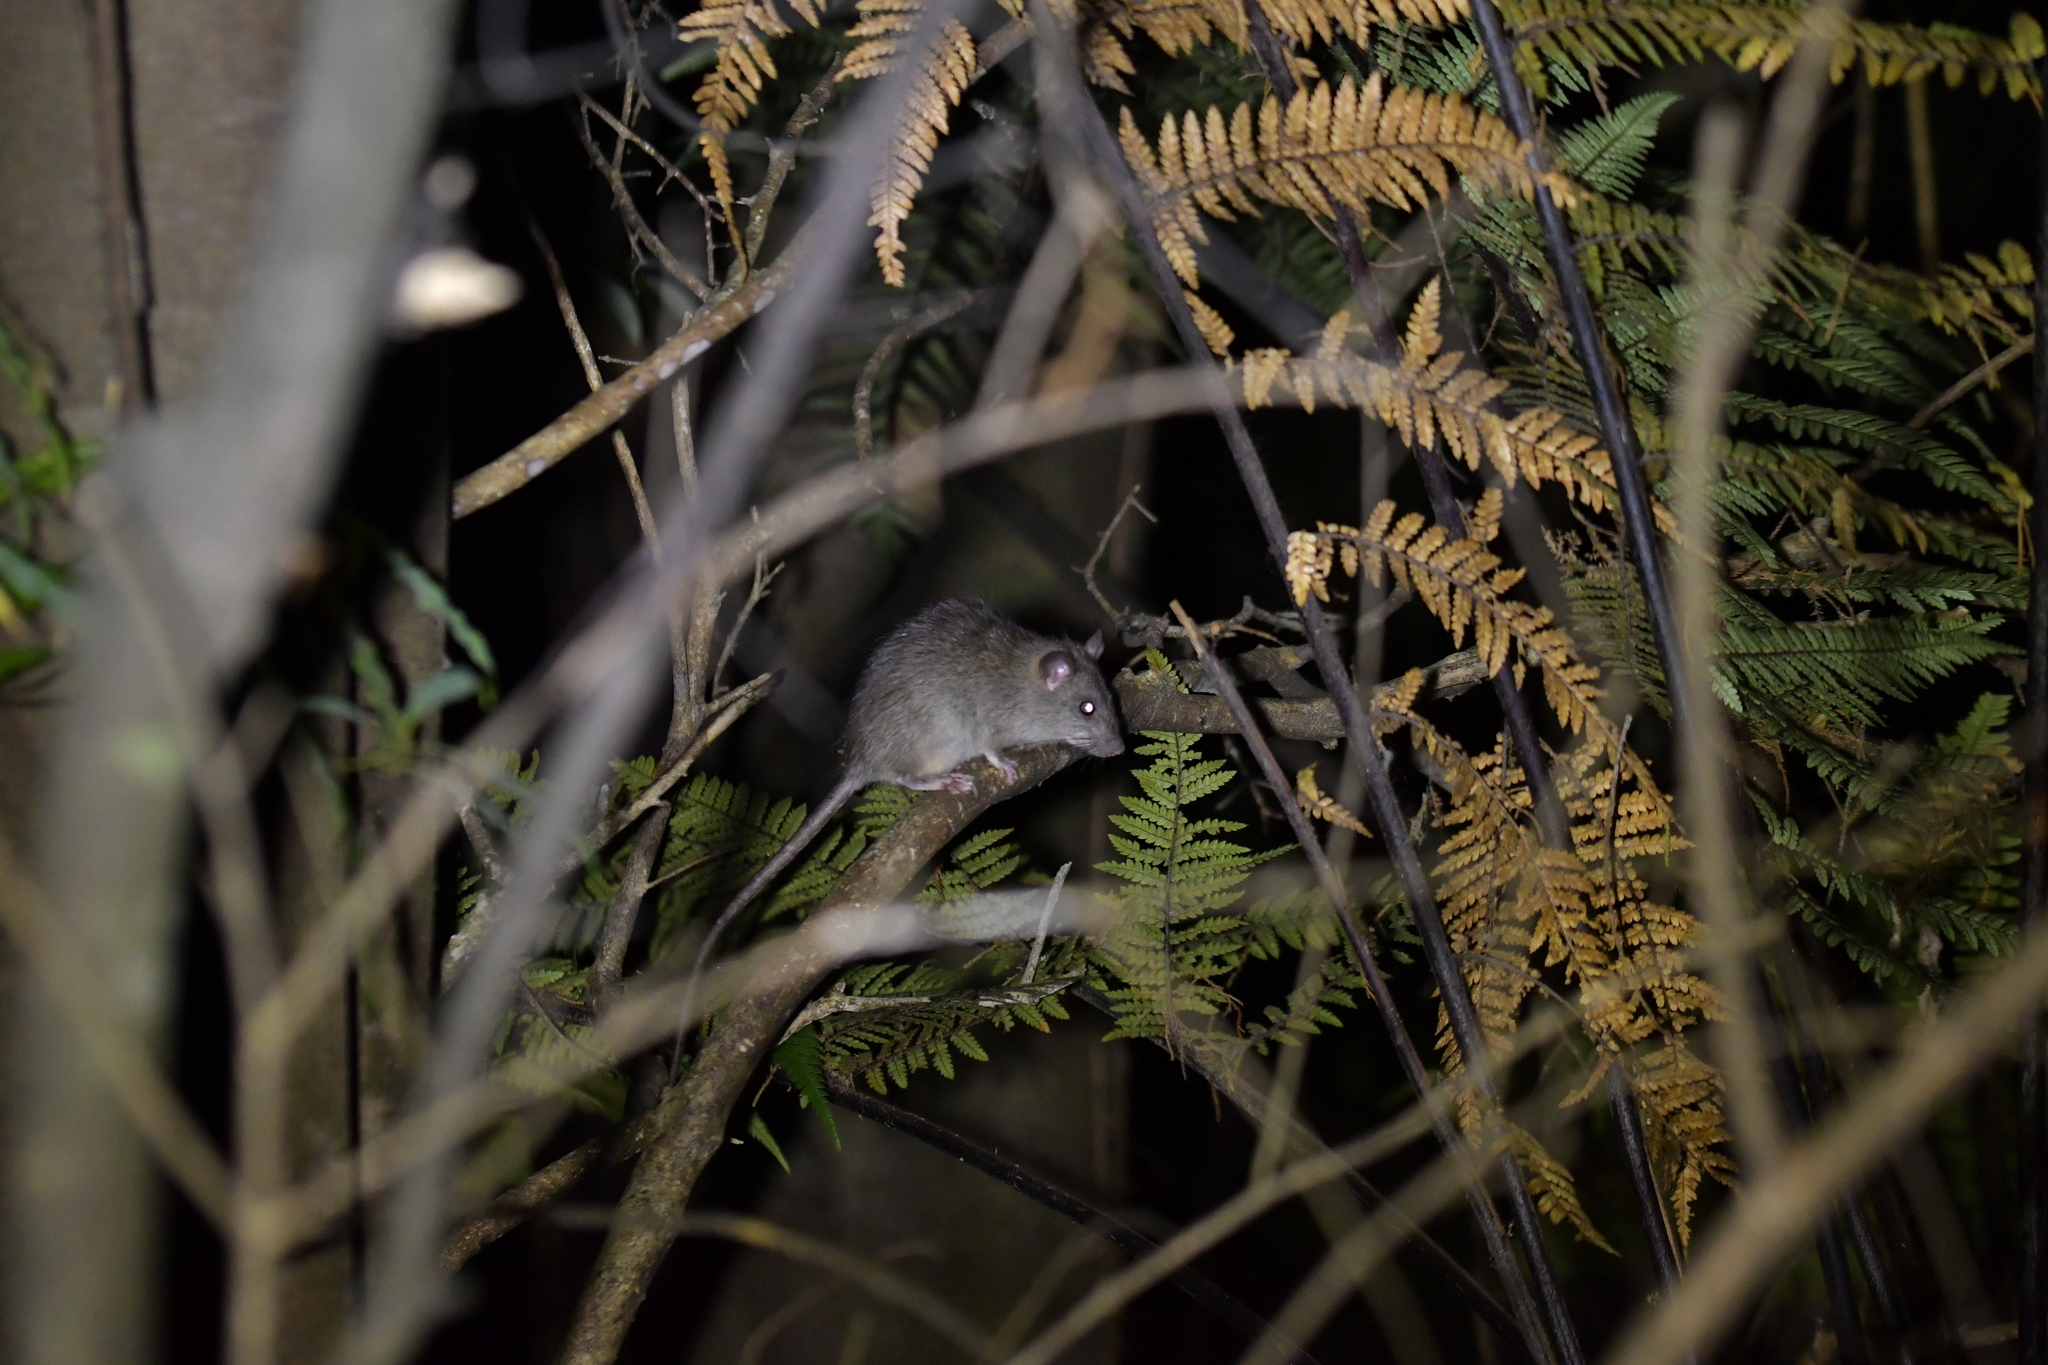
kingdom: Animalia
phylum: Chordata
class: Mammalia
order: Rodentia
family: Muridae
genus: Rattus
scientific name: Rattus rattus
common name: Black rat
